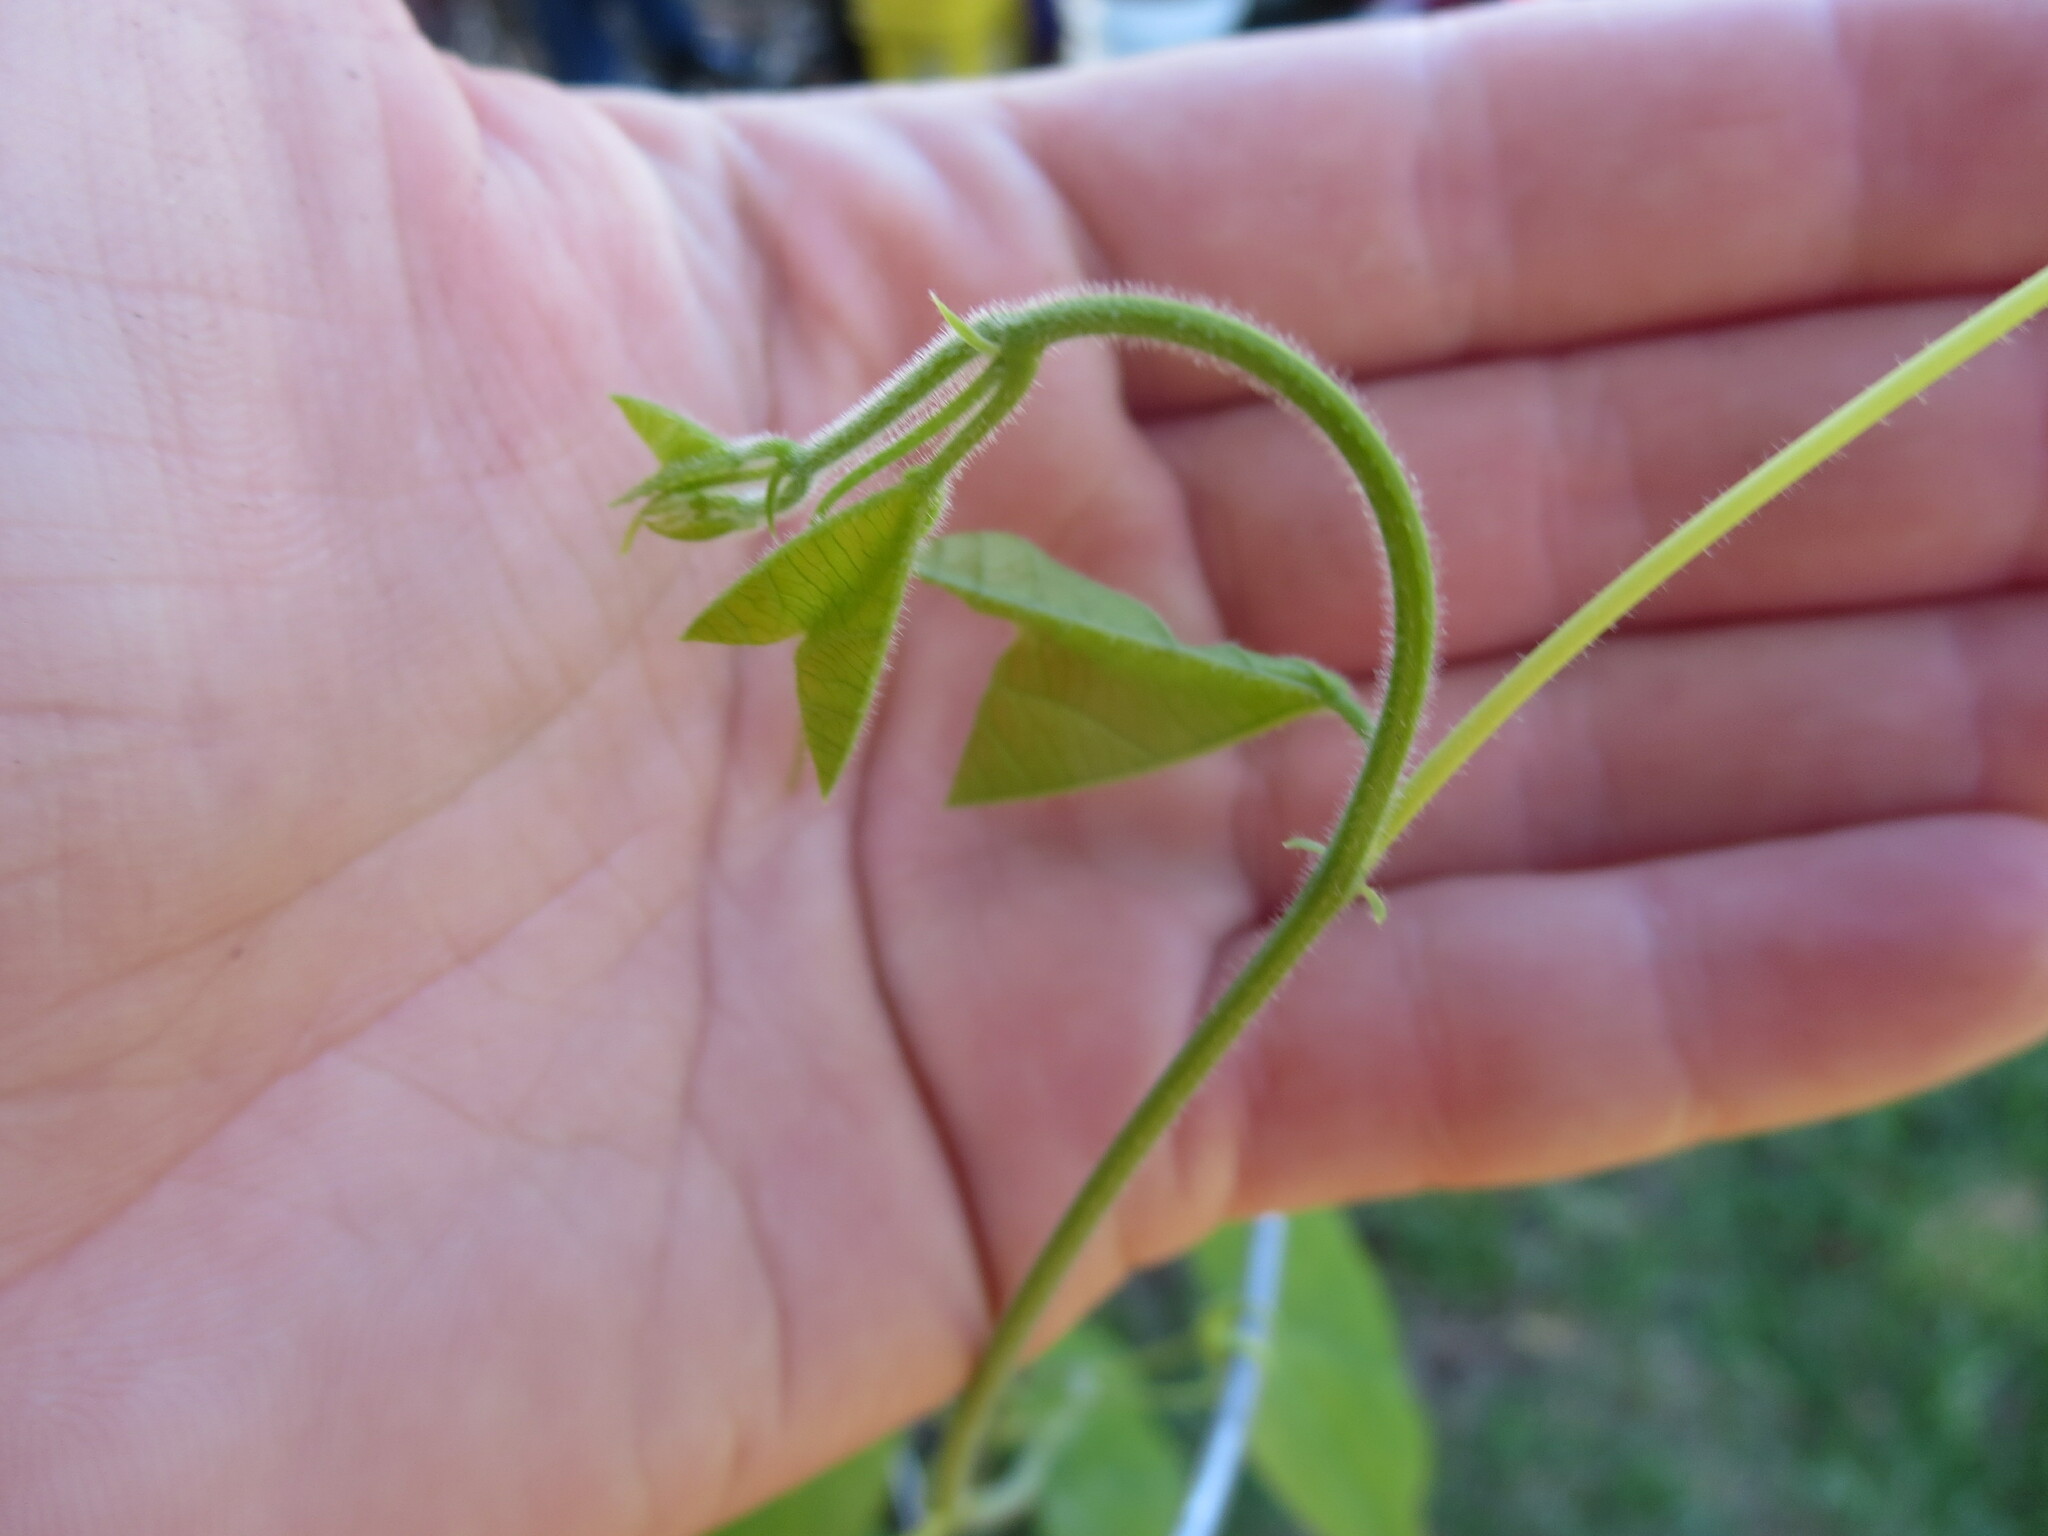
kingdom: Plantae
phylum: Tracheophyta
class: Magnoliopsida
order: Malpighiales
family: Passifloraceae
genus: Passiflora
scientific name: Passiflora lutea
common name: Yellow passionflower
